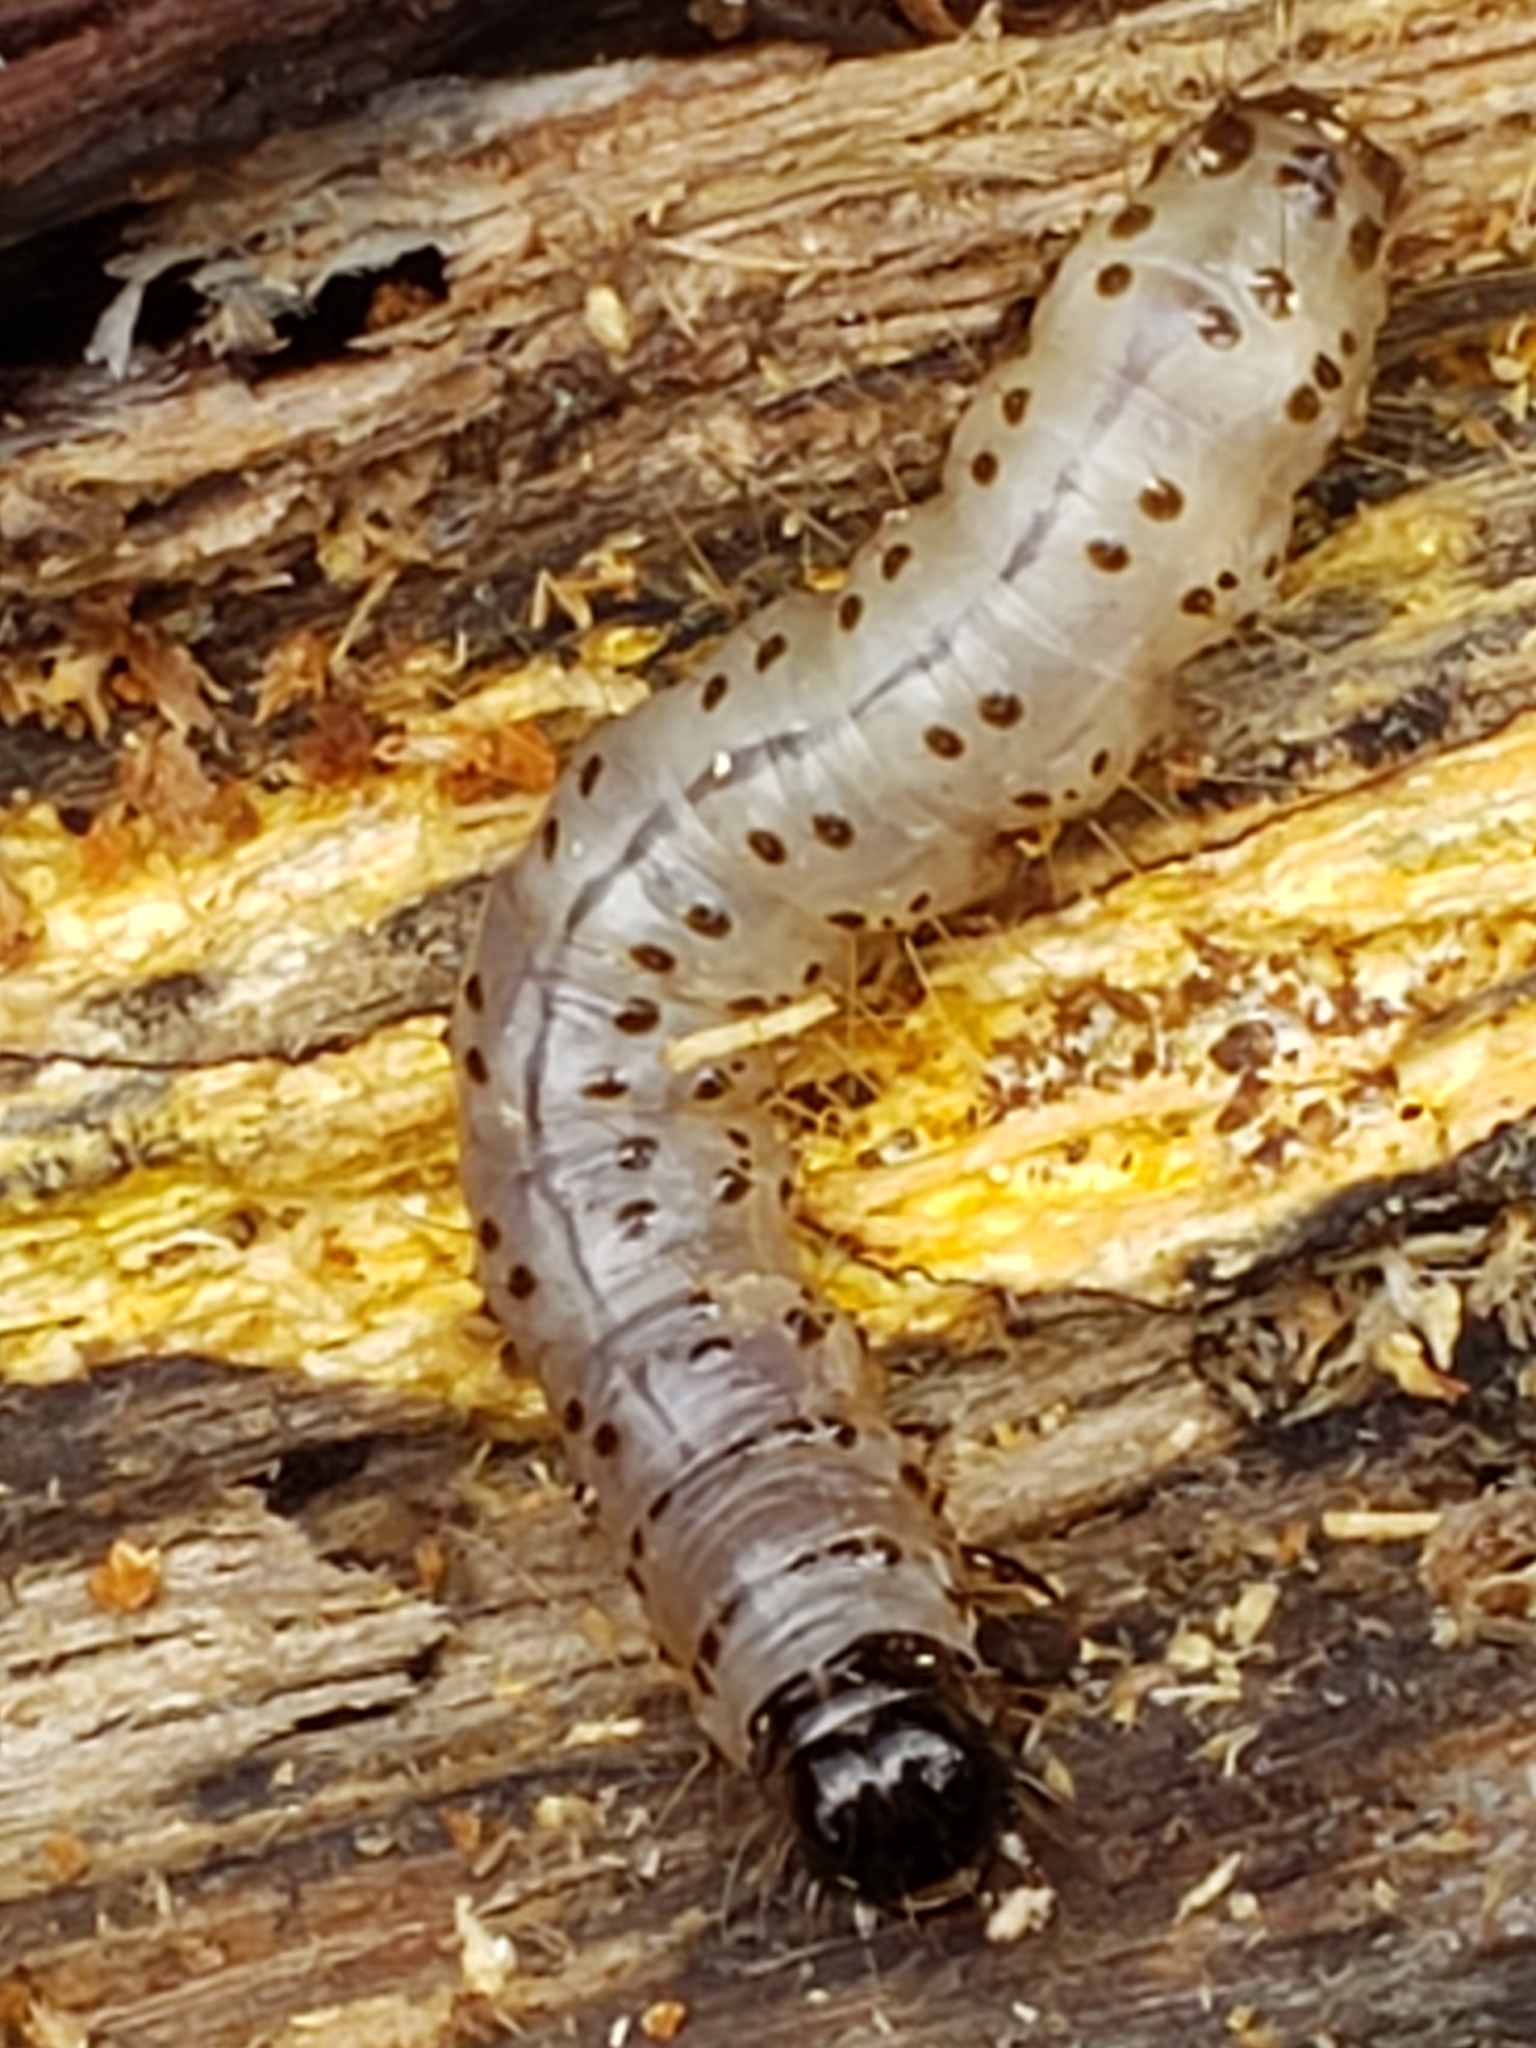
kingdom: Animalia
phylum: Arthropoda
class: Insecta
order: Lepidoptera
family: Erebidae
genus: Scolecocampa
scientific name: Scolecocampa liburna
